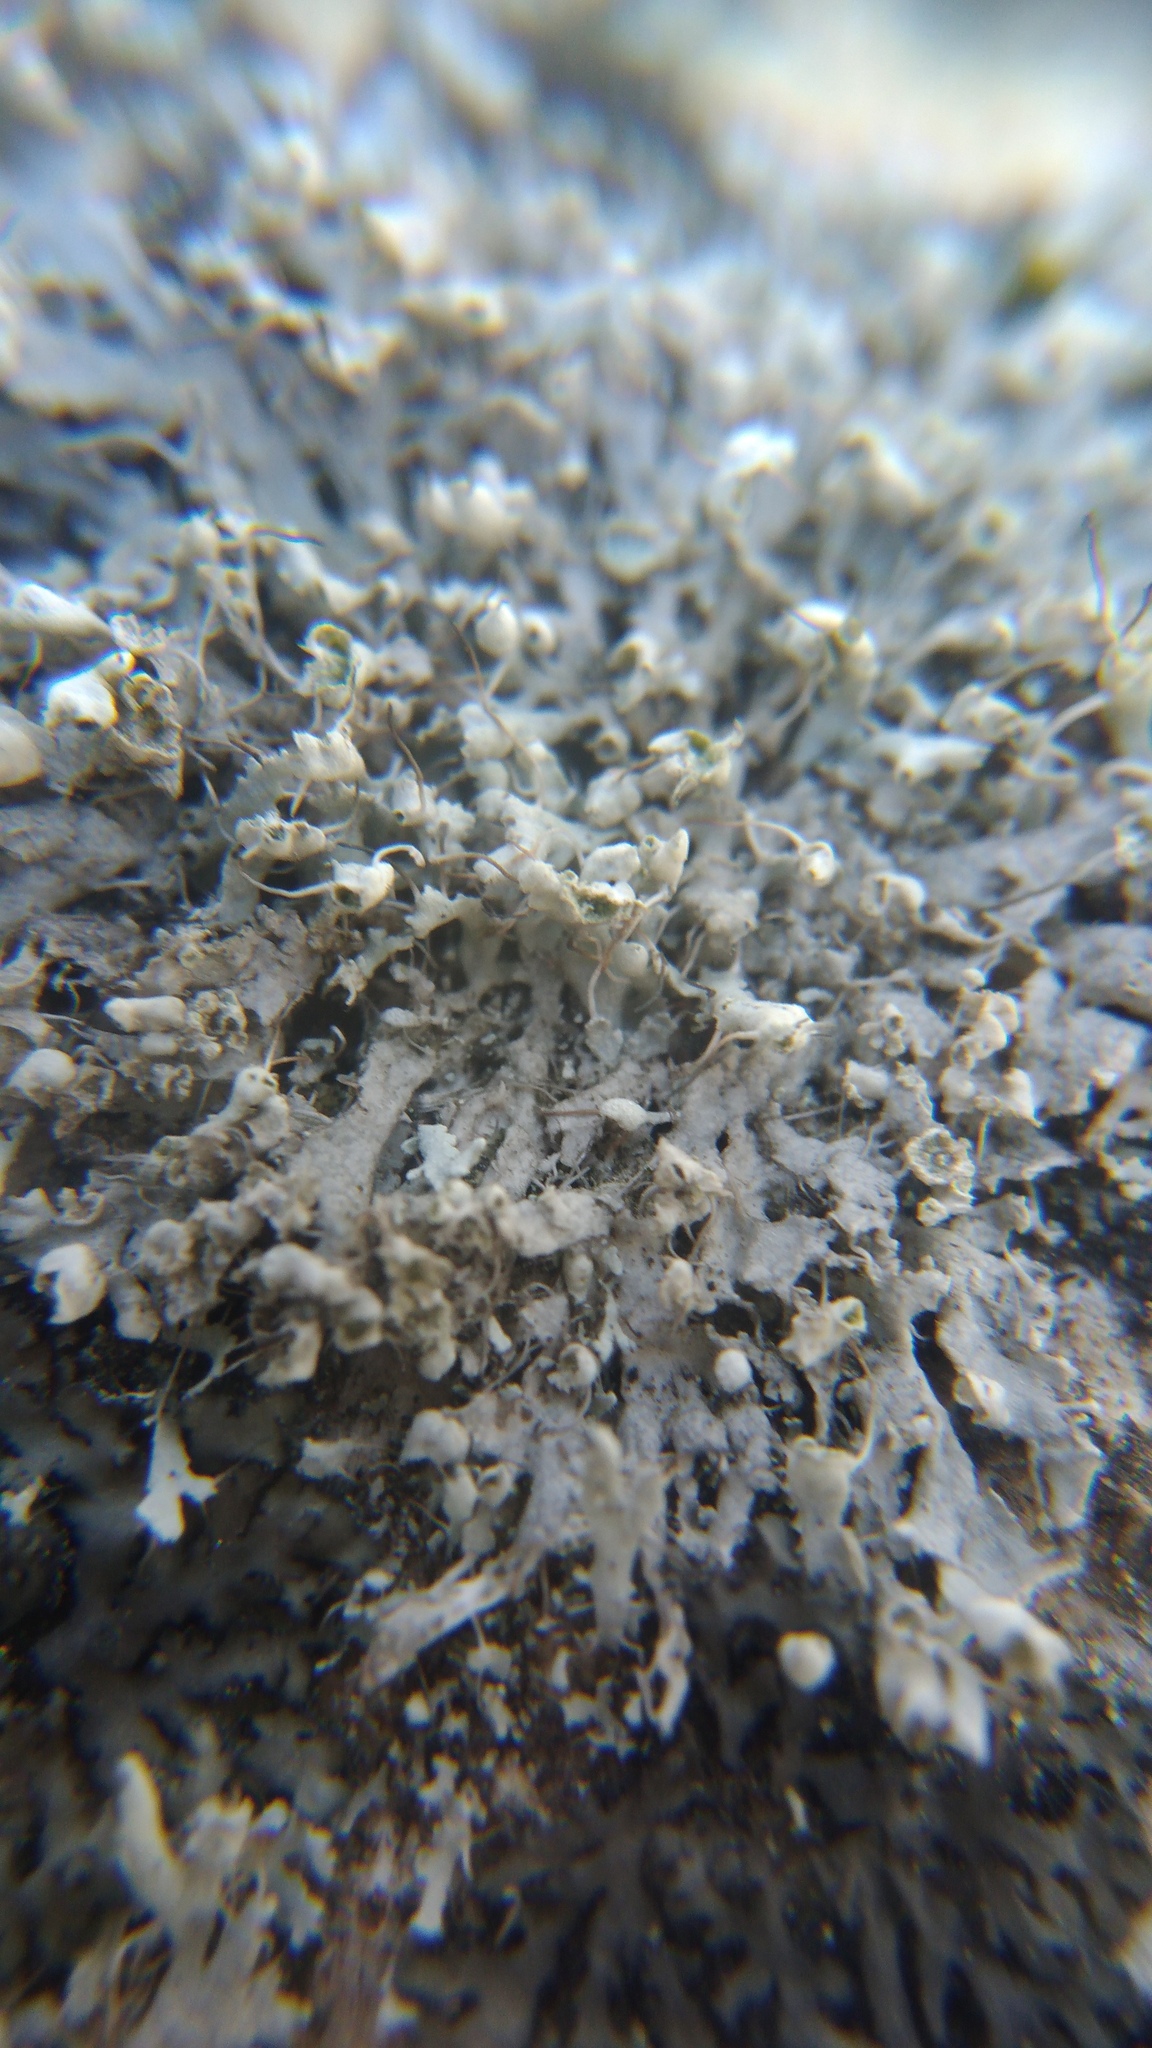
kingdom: Fungi
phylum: Ascomycota
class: Lecanoromycetes
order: Caliciales
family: Physciaceae
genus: Physcia
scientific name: Physcia adscendens
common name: Hooded rosette lichen
